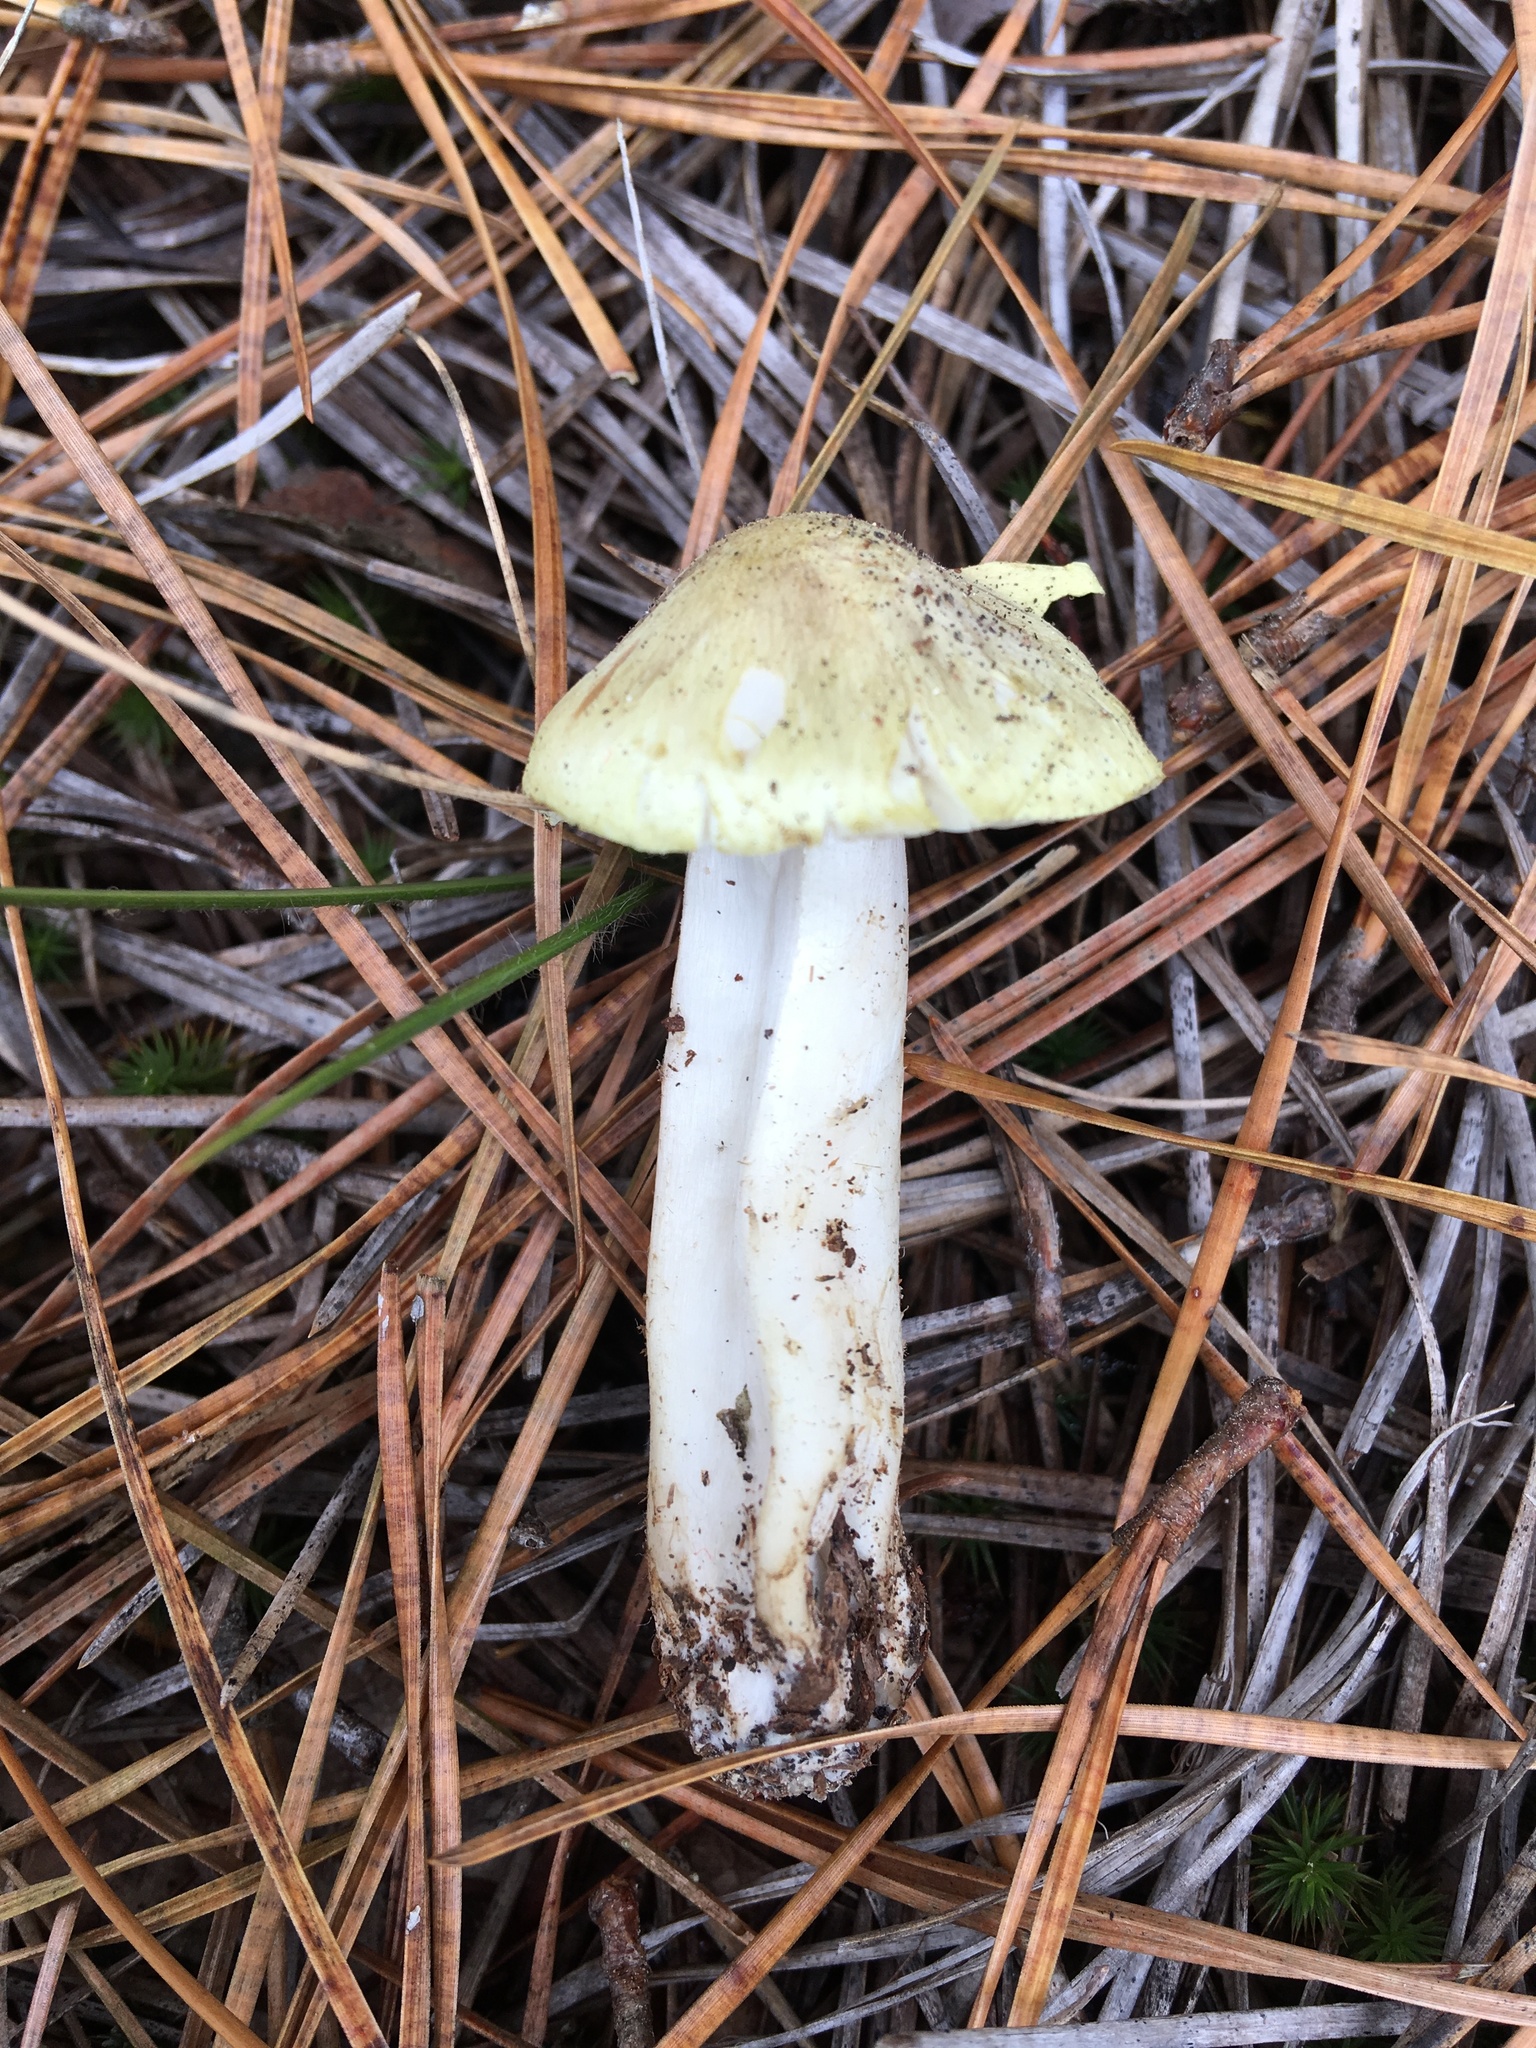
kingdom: Fungi
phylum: Basidiomycota
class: Agaricomycetes
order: Agaricales
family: Tricholomataceae
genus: Tricholoma
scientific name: Tricholoma aestuans
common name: Acrid knight
